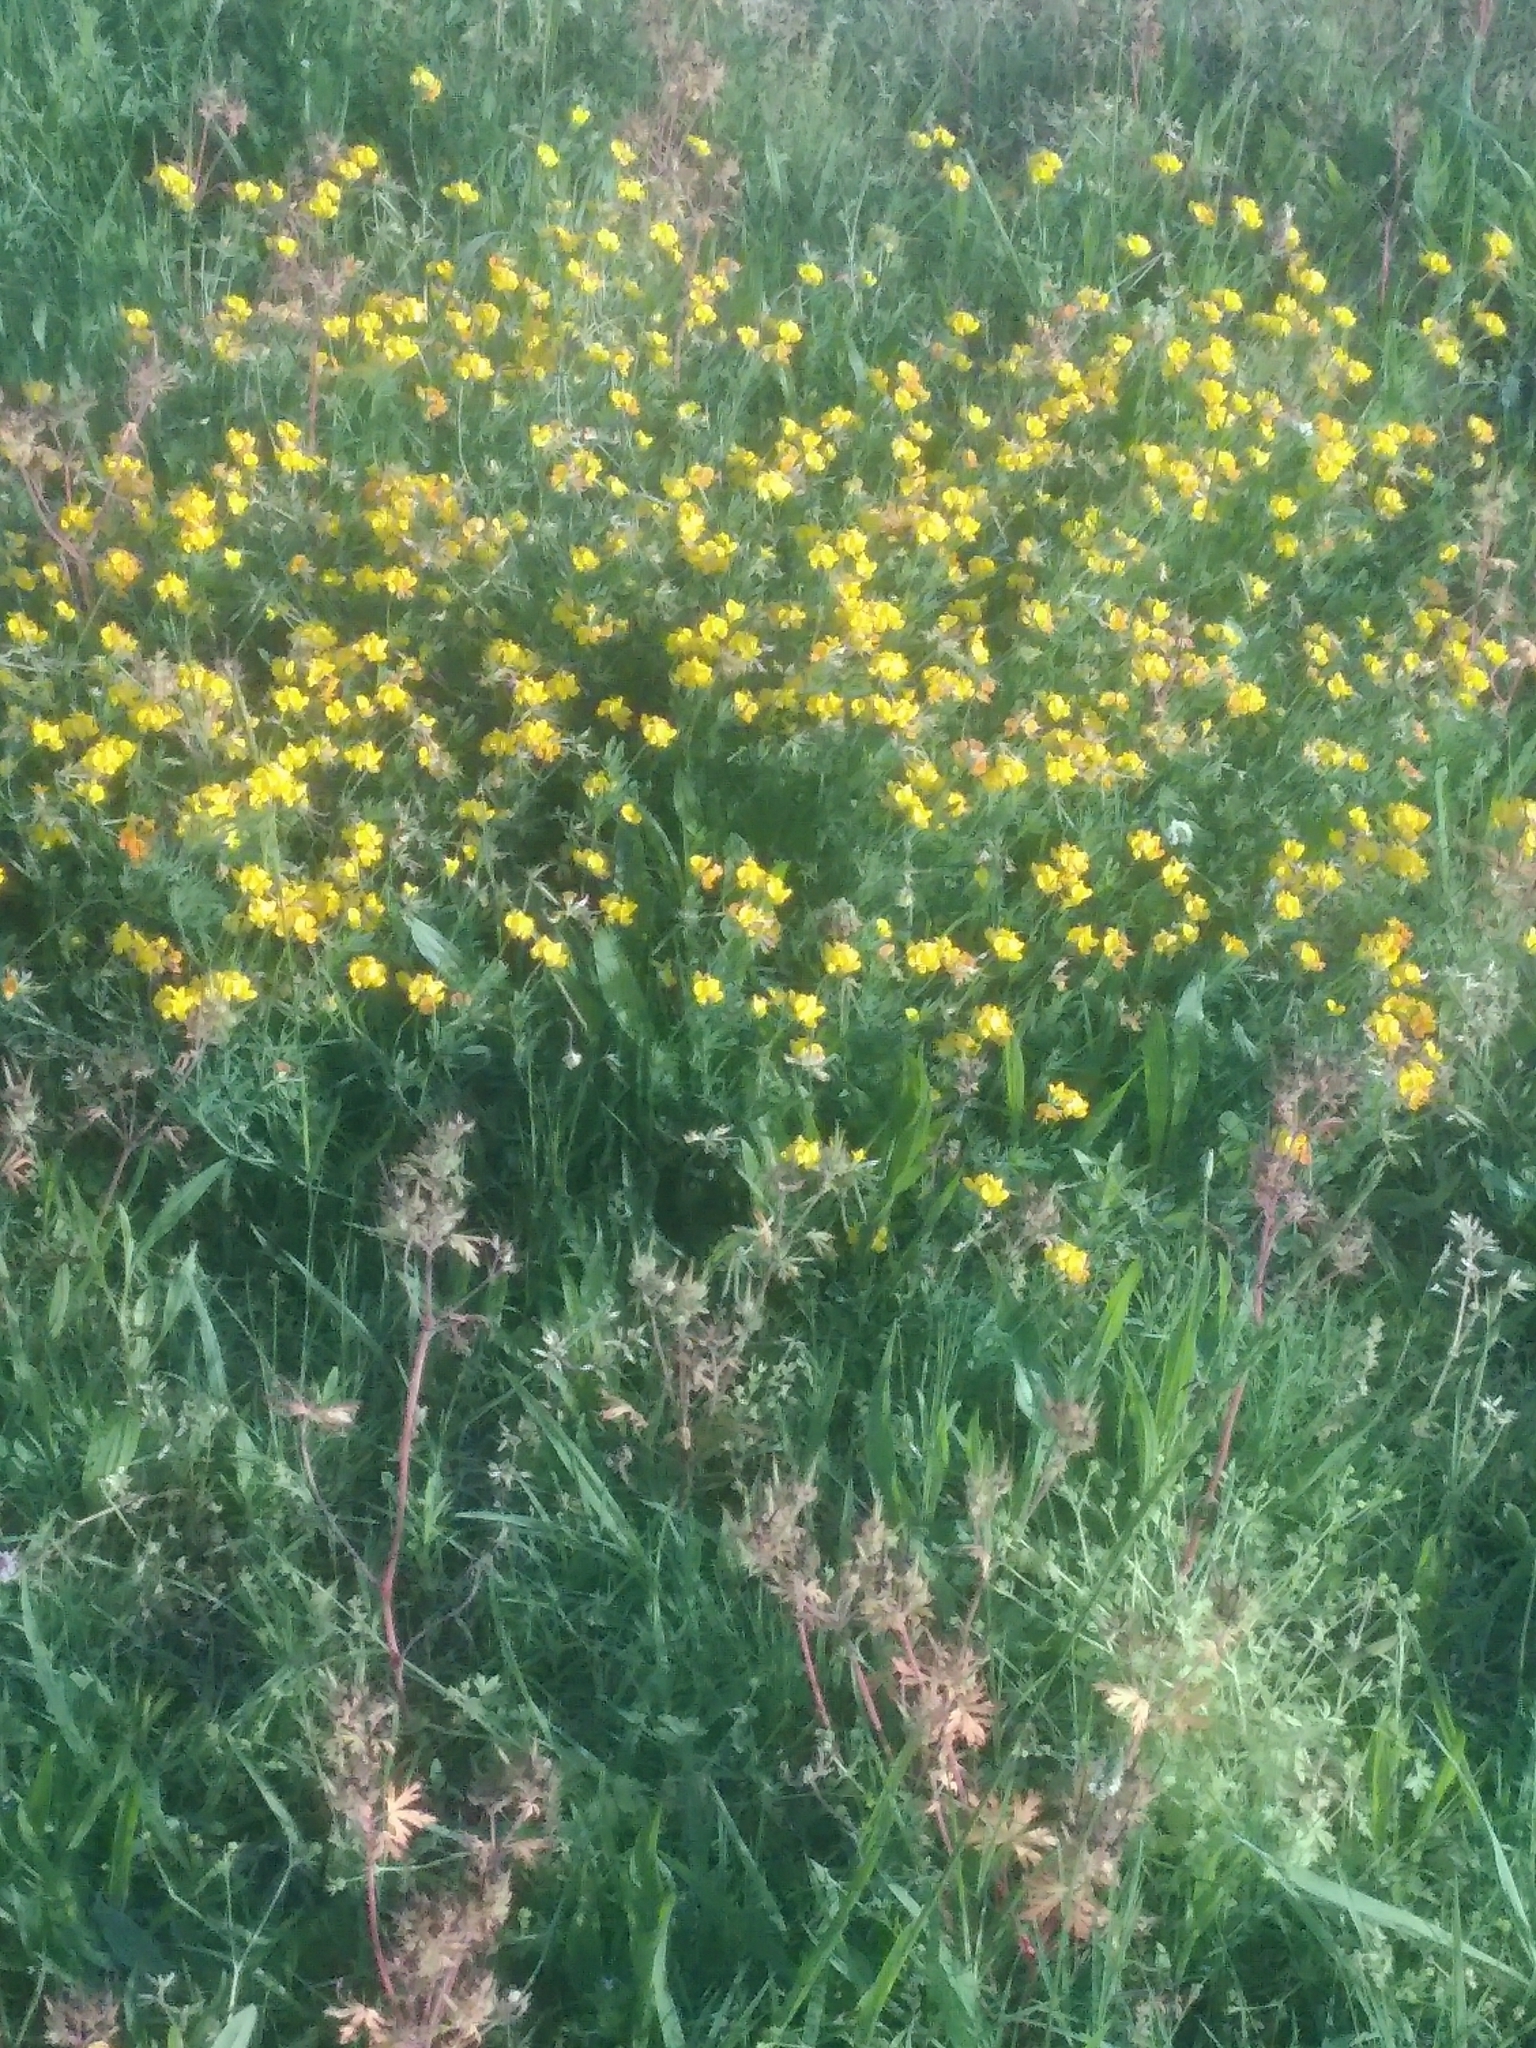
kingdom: Plantae
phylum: Tracheophyta
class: Magnoliopsida
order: Fabales
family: Fabaceae
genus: Lotus
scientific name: Lotus corniculatus
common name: Common bird's-foot-trefoil
